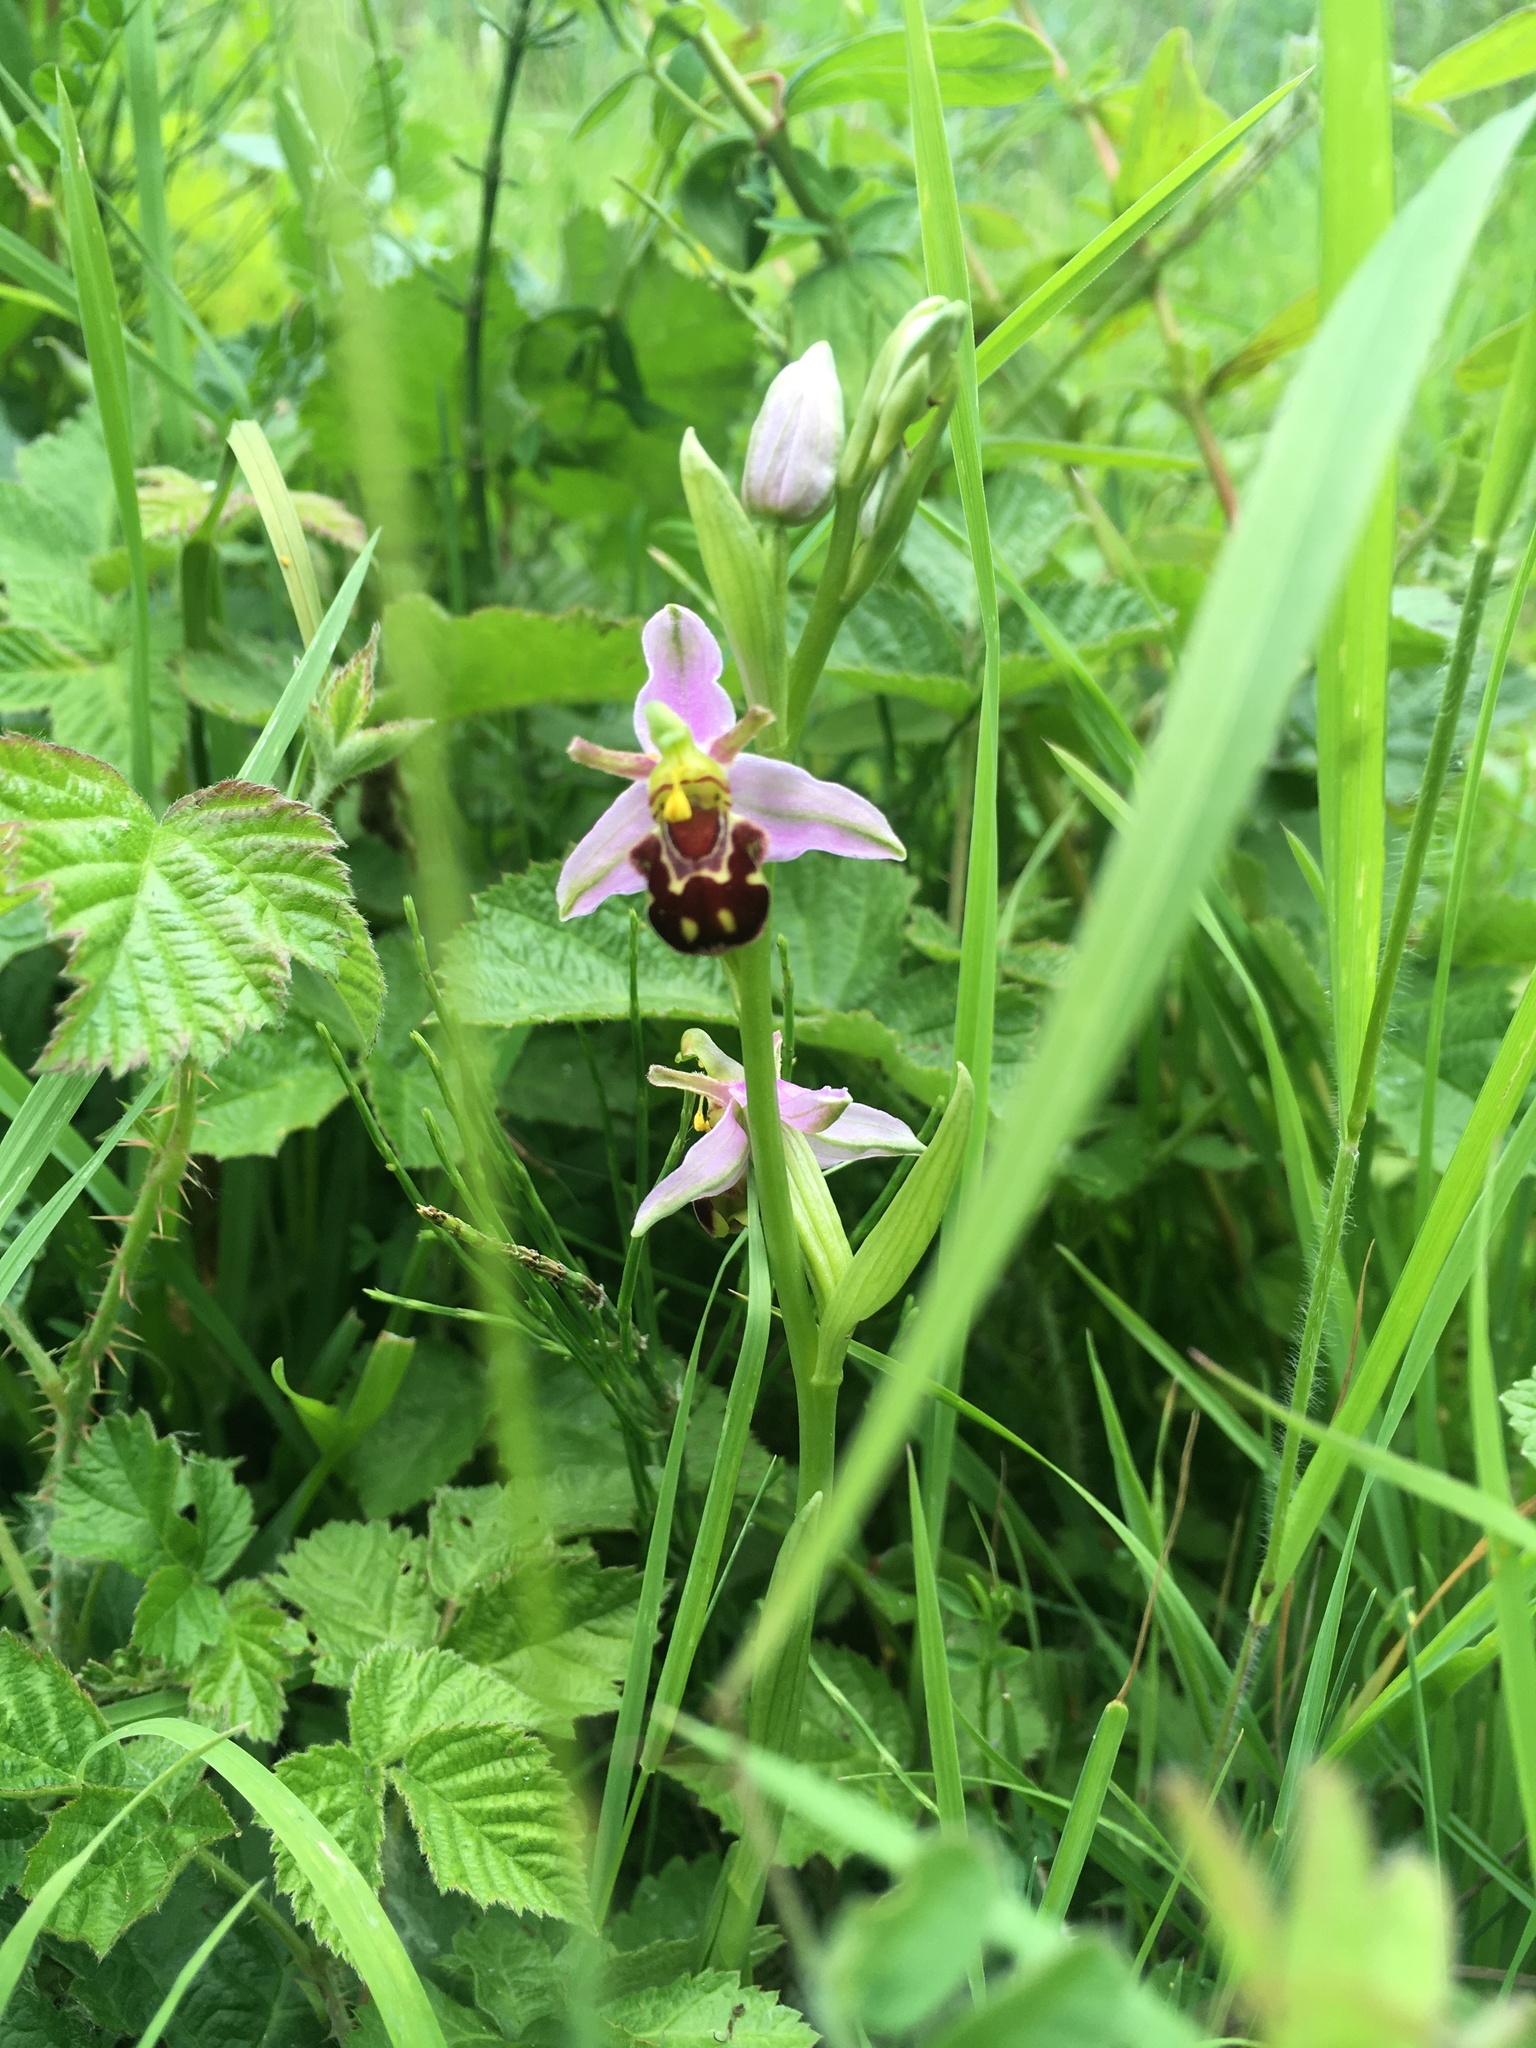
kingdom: Plantae
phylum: Tracheophyta
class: Liliopsida
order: Asparagales
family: Orchidaceae
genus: Ophrys
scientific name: Ophrys apifera
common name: Bee orchid
